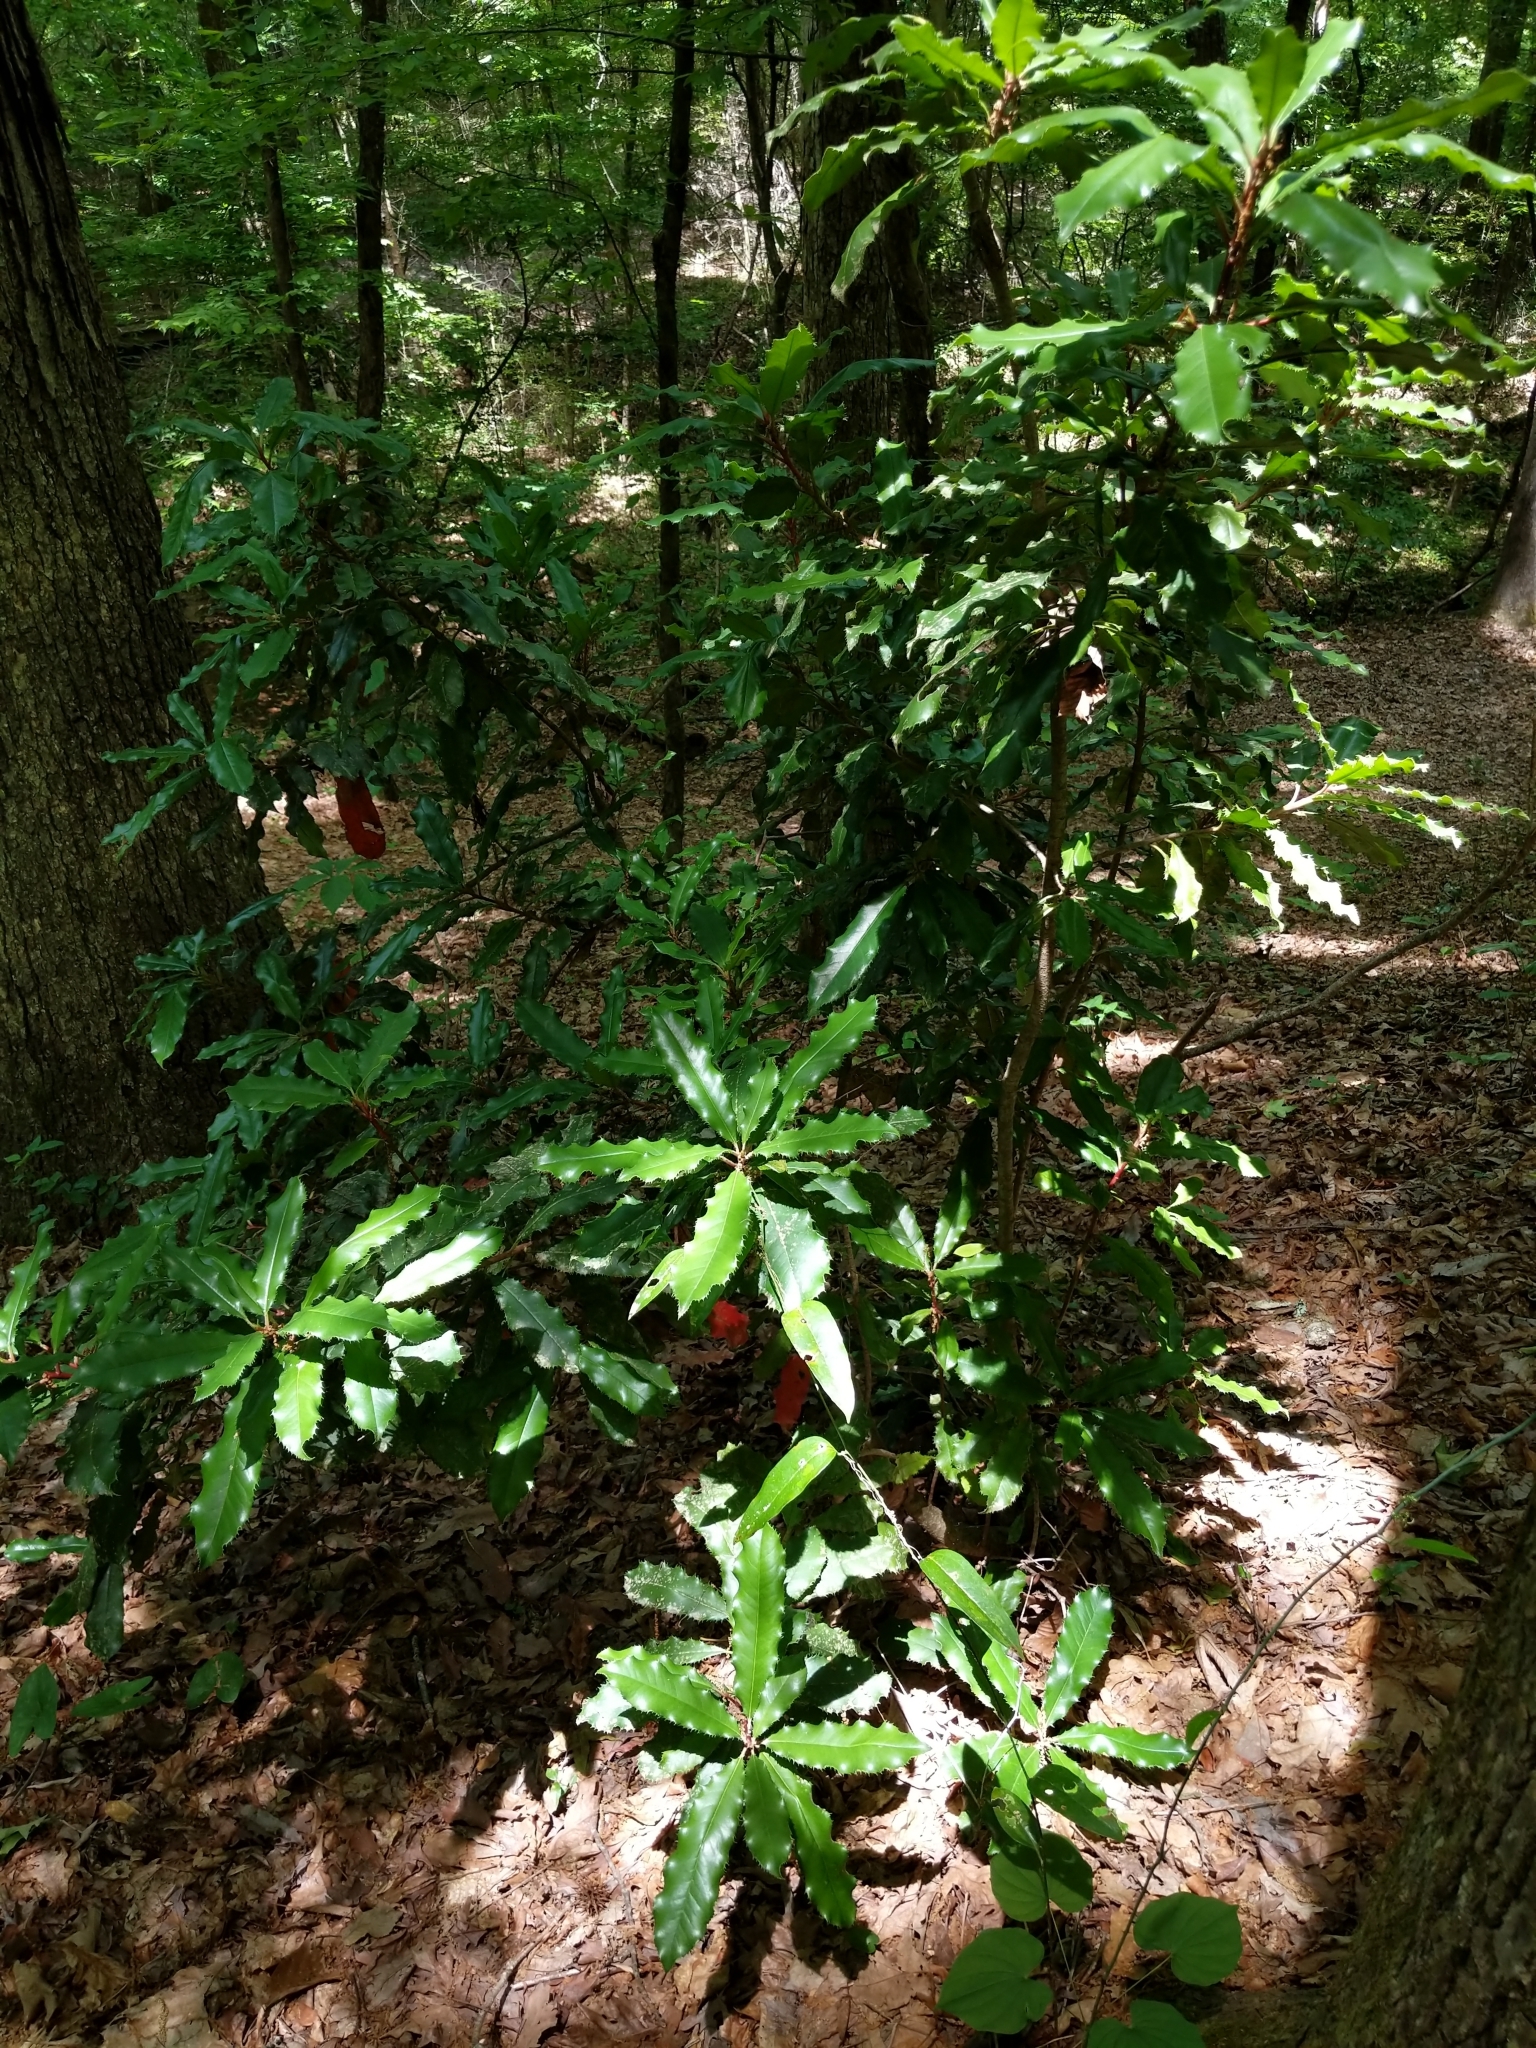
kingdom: Plantae
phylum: Tracheophyta
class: Magnoliopsida
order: Rosales
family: Rosaceae
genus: Photinia
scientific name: Photinia serratifolia
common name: Taiwanese photinia
